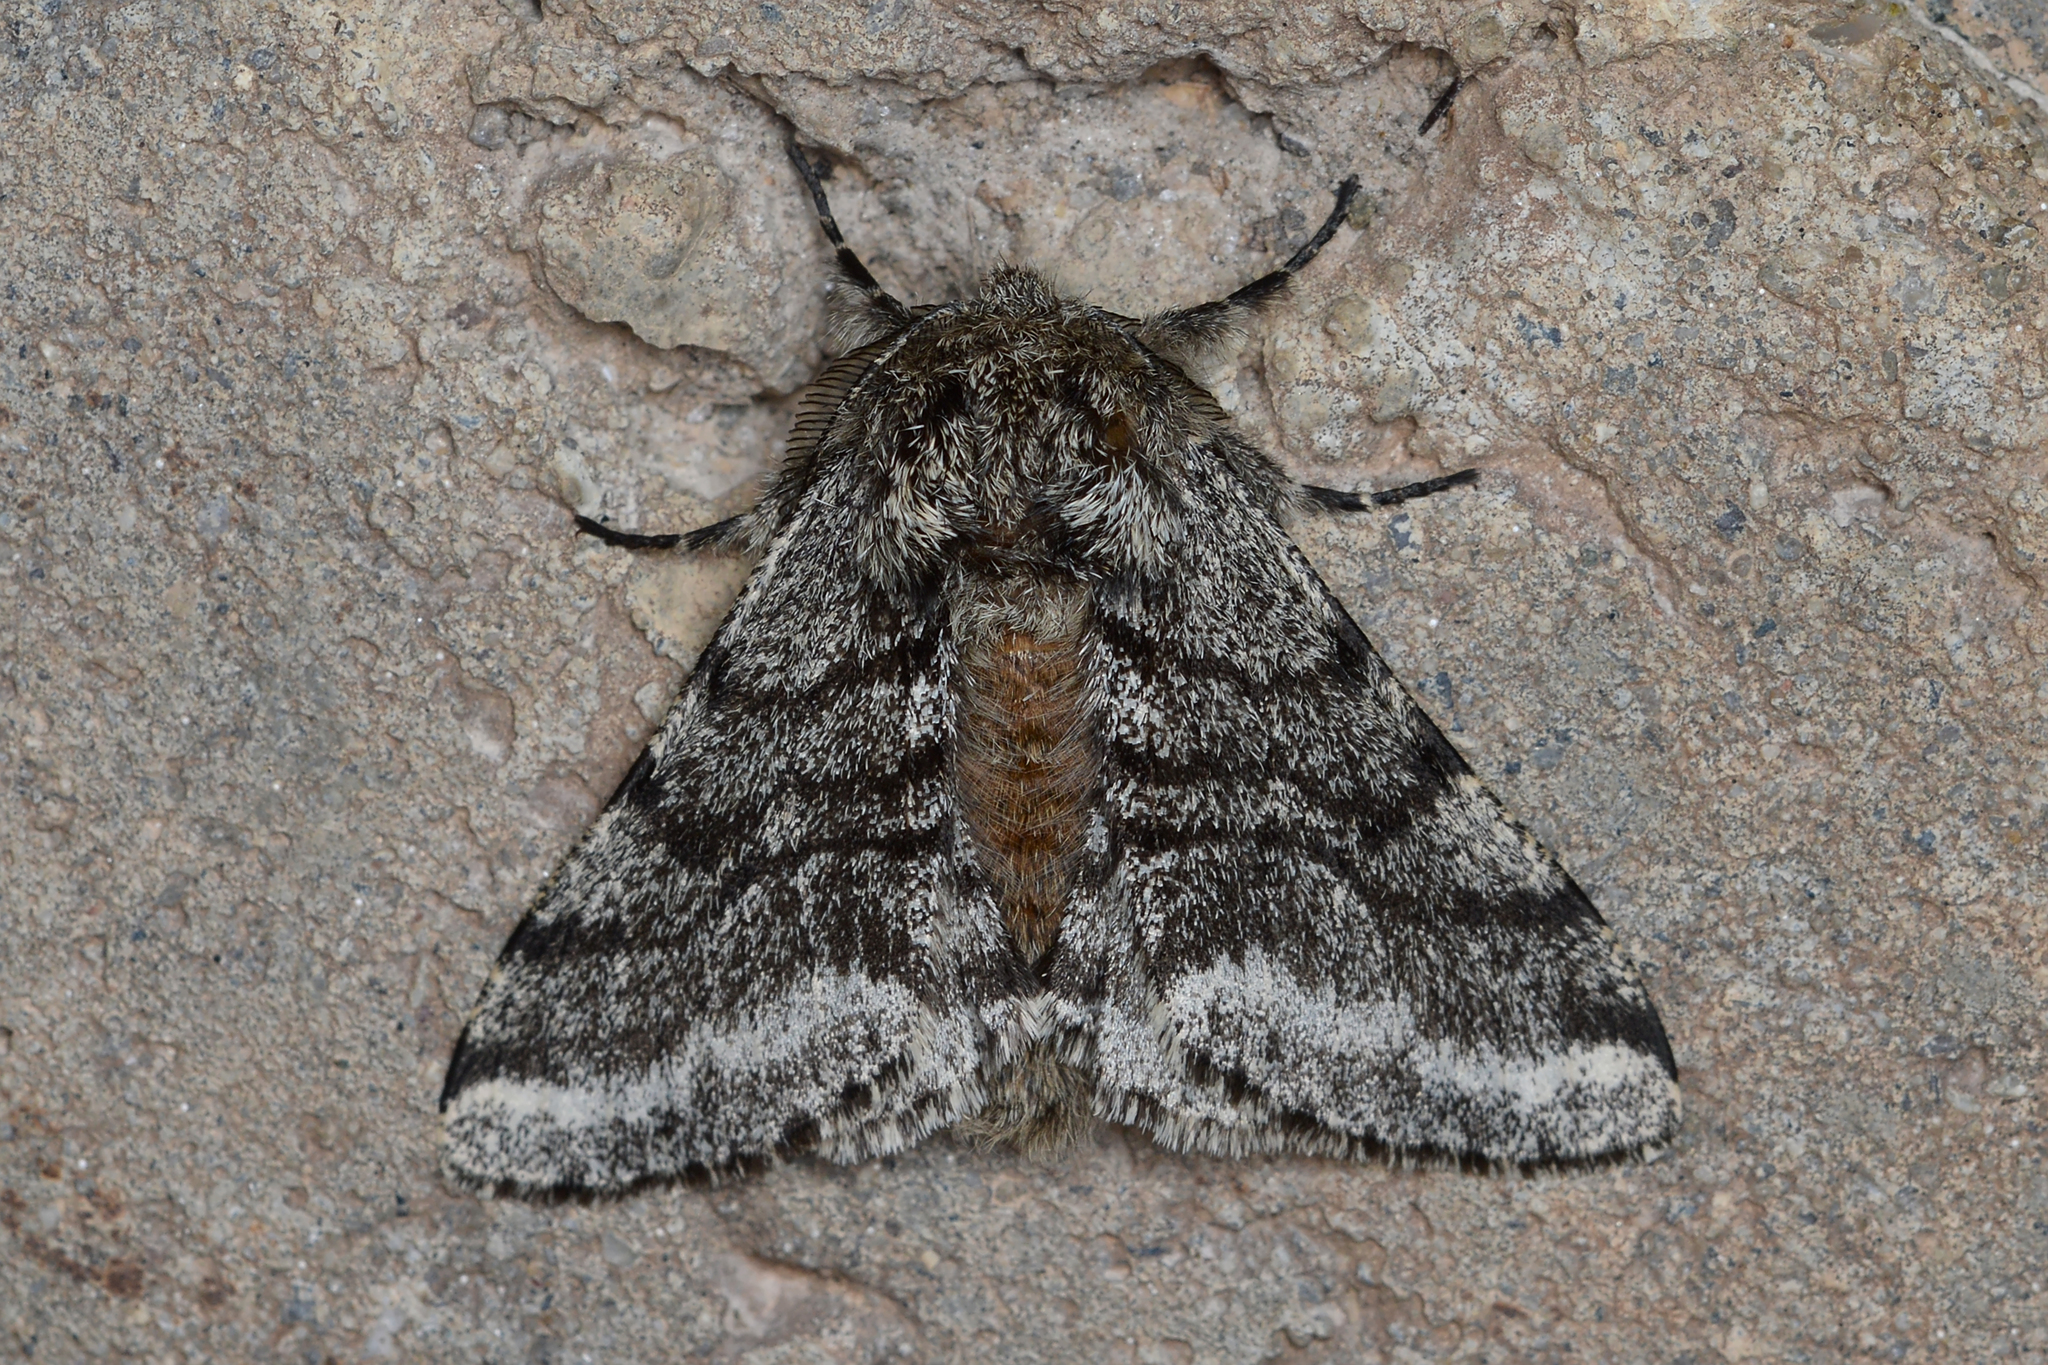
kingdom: Animalia
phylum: Arthropoda
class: Insecta
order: Lepidoptera
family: Geometridae
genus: Lycia
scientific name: Lycia ursaria
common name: Stout spanworm
